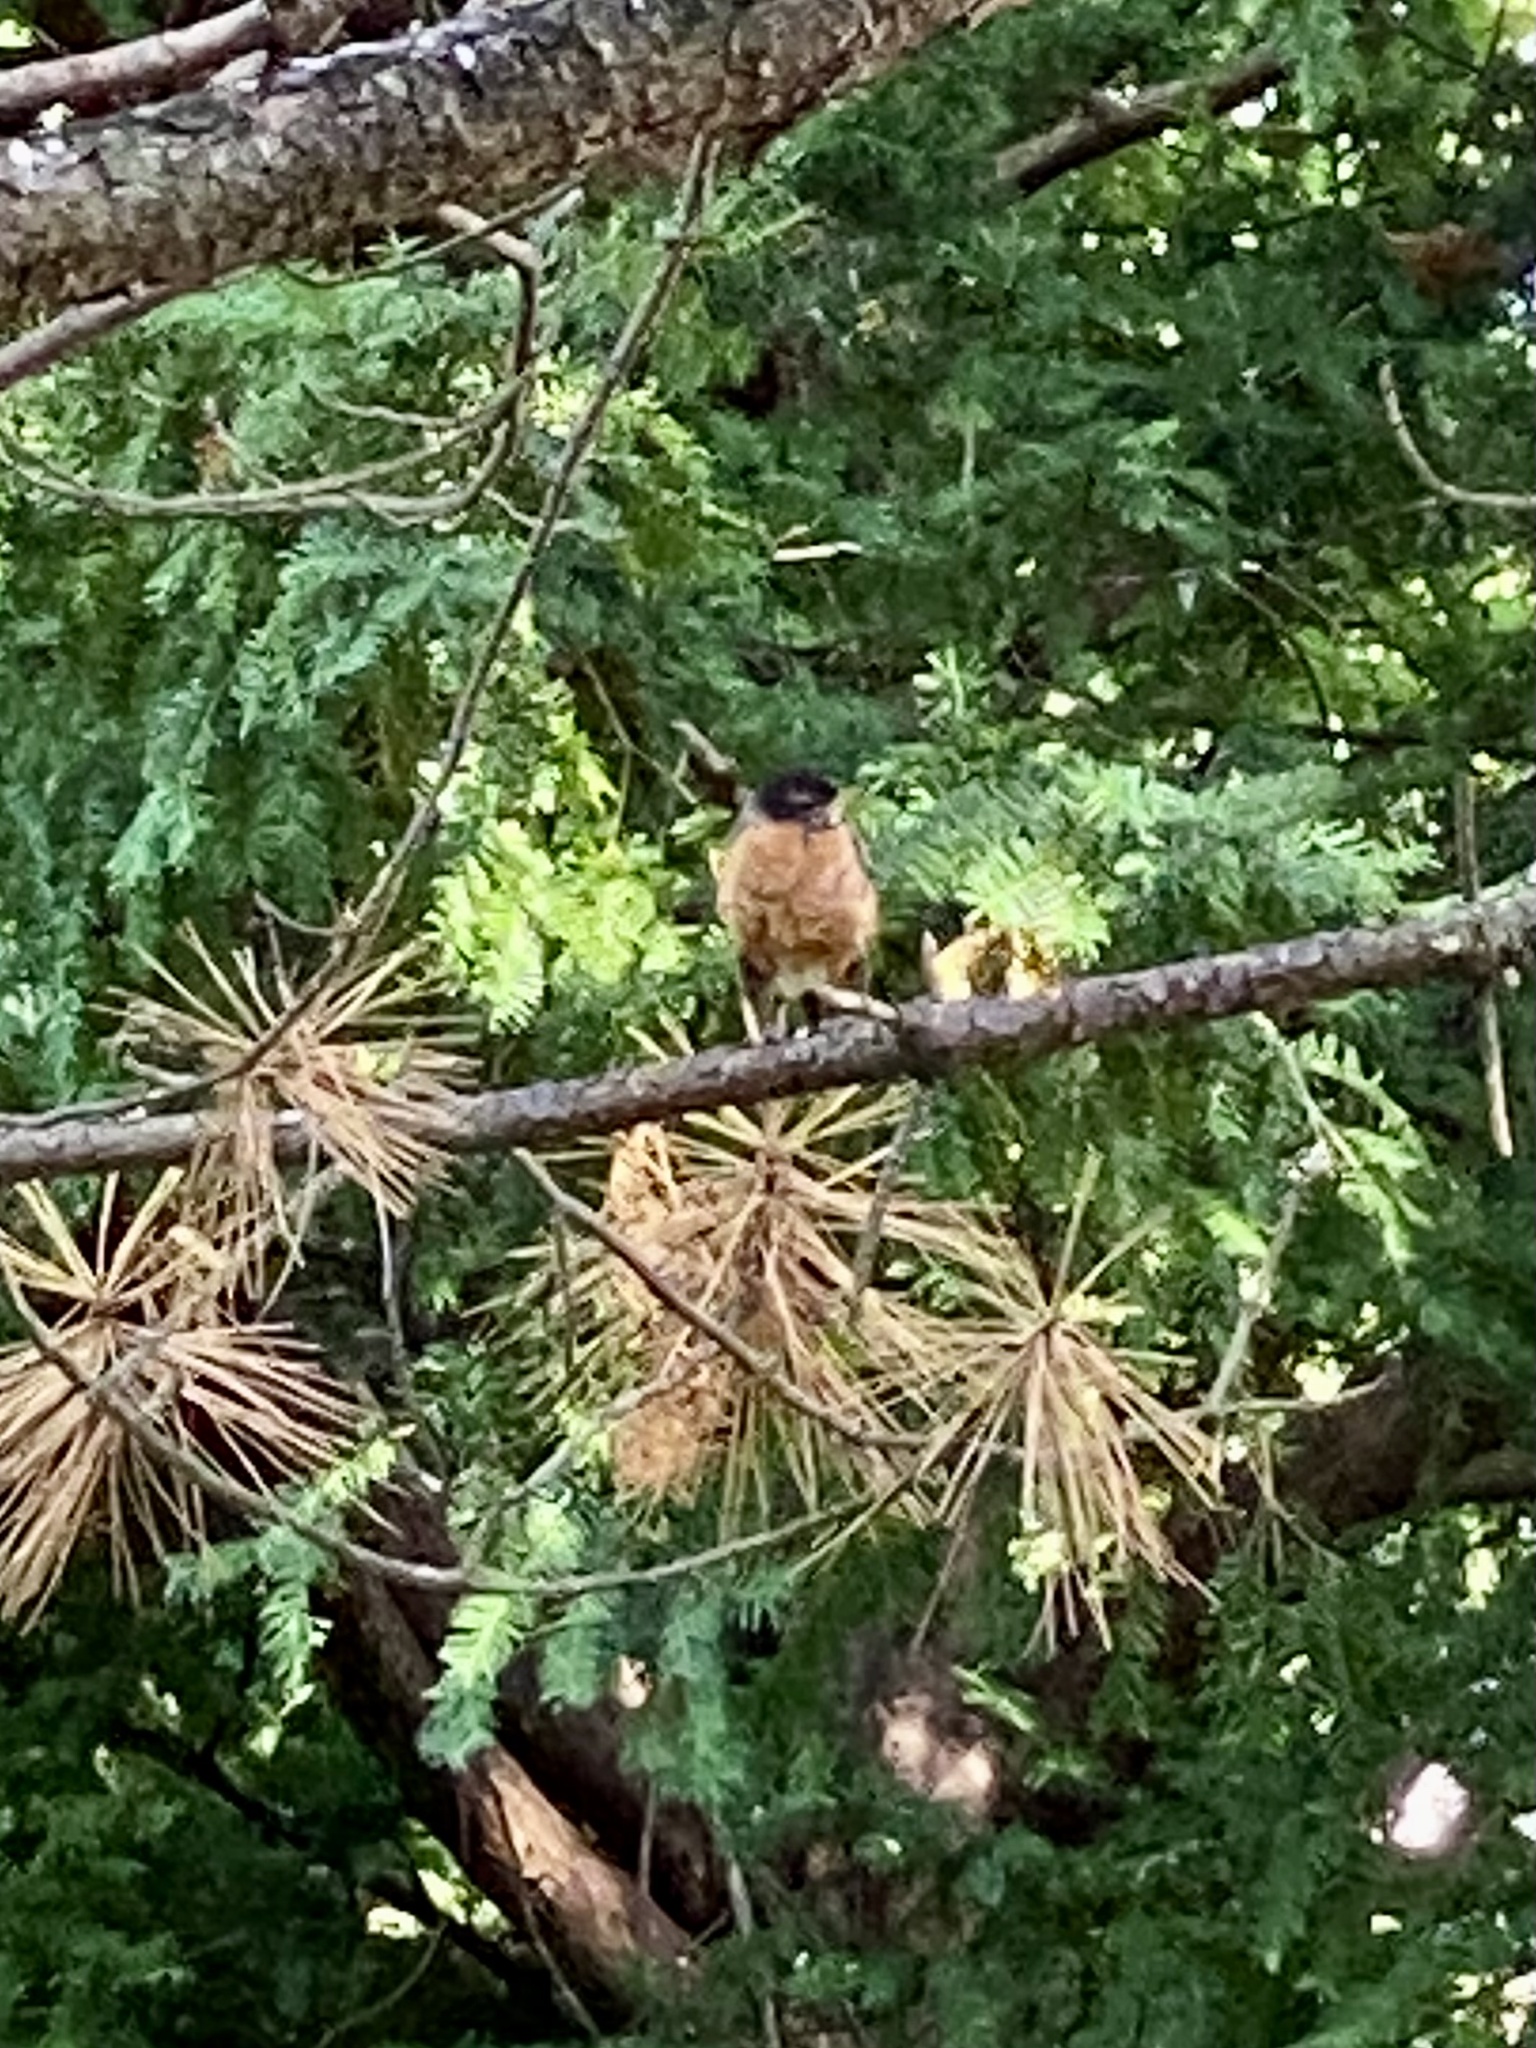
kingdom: Animalia
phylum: Chordata
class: Aves
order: Passeriformes
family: Turdidae
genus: Turdus
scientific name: Turdus migratorius
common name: American robin
